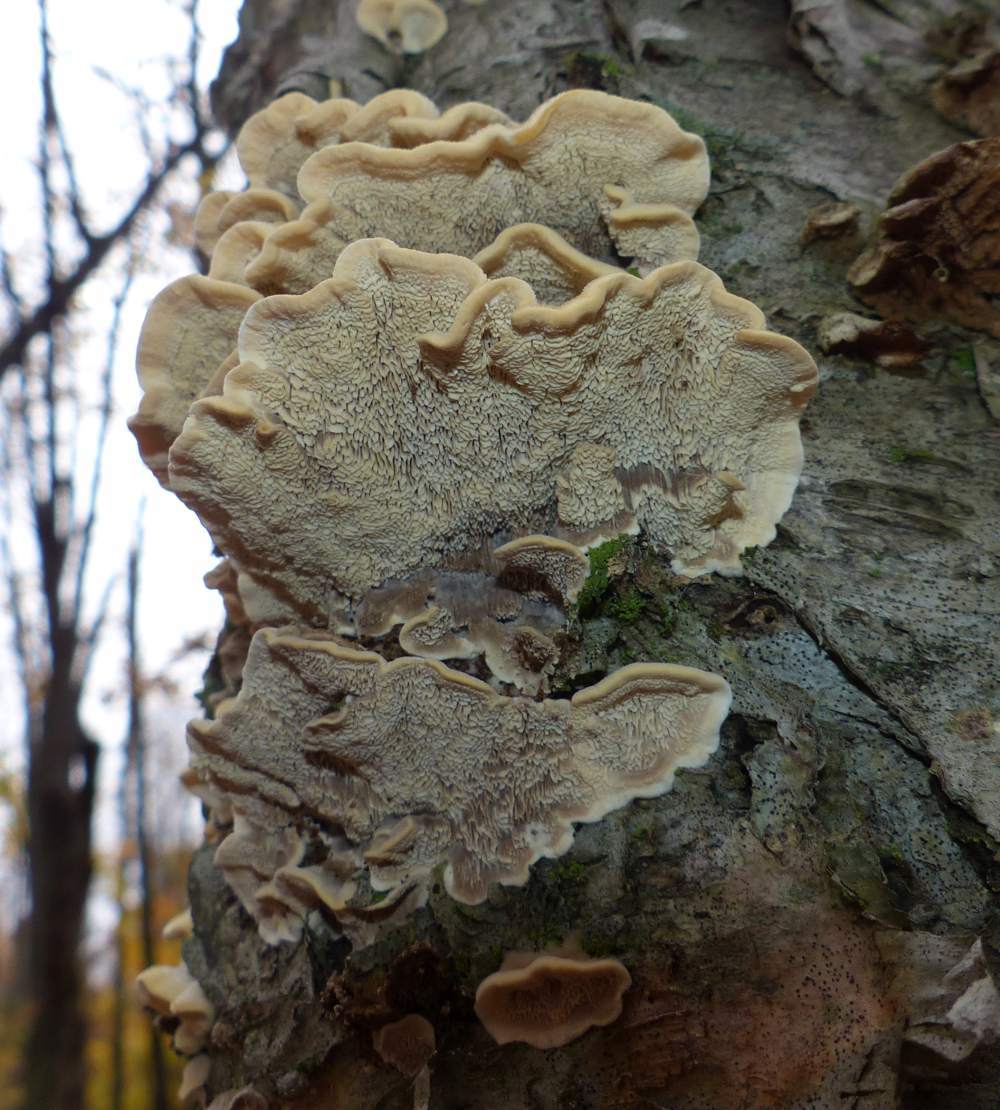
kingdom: Fungi
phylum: Basidiomycota
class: Agaricomycetes
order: Polyporales
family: Cerrenaceae
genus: Cerrena
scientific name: Cerrena unicolor
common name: Mossy maze polypore
